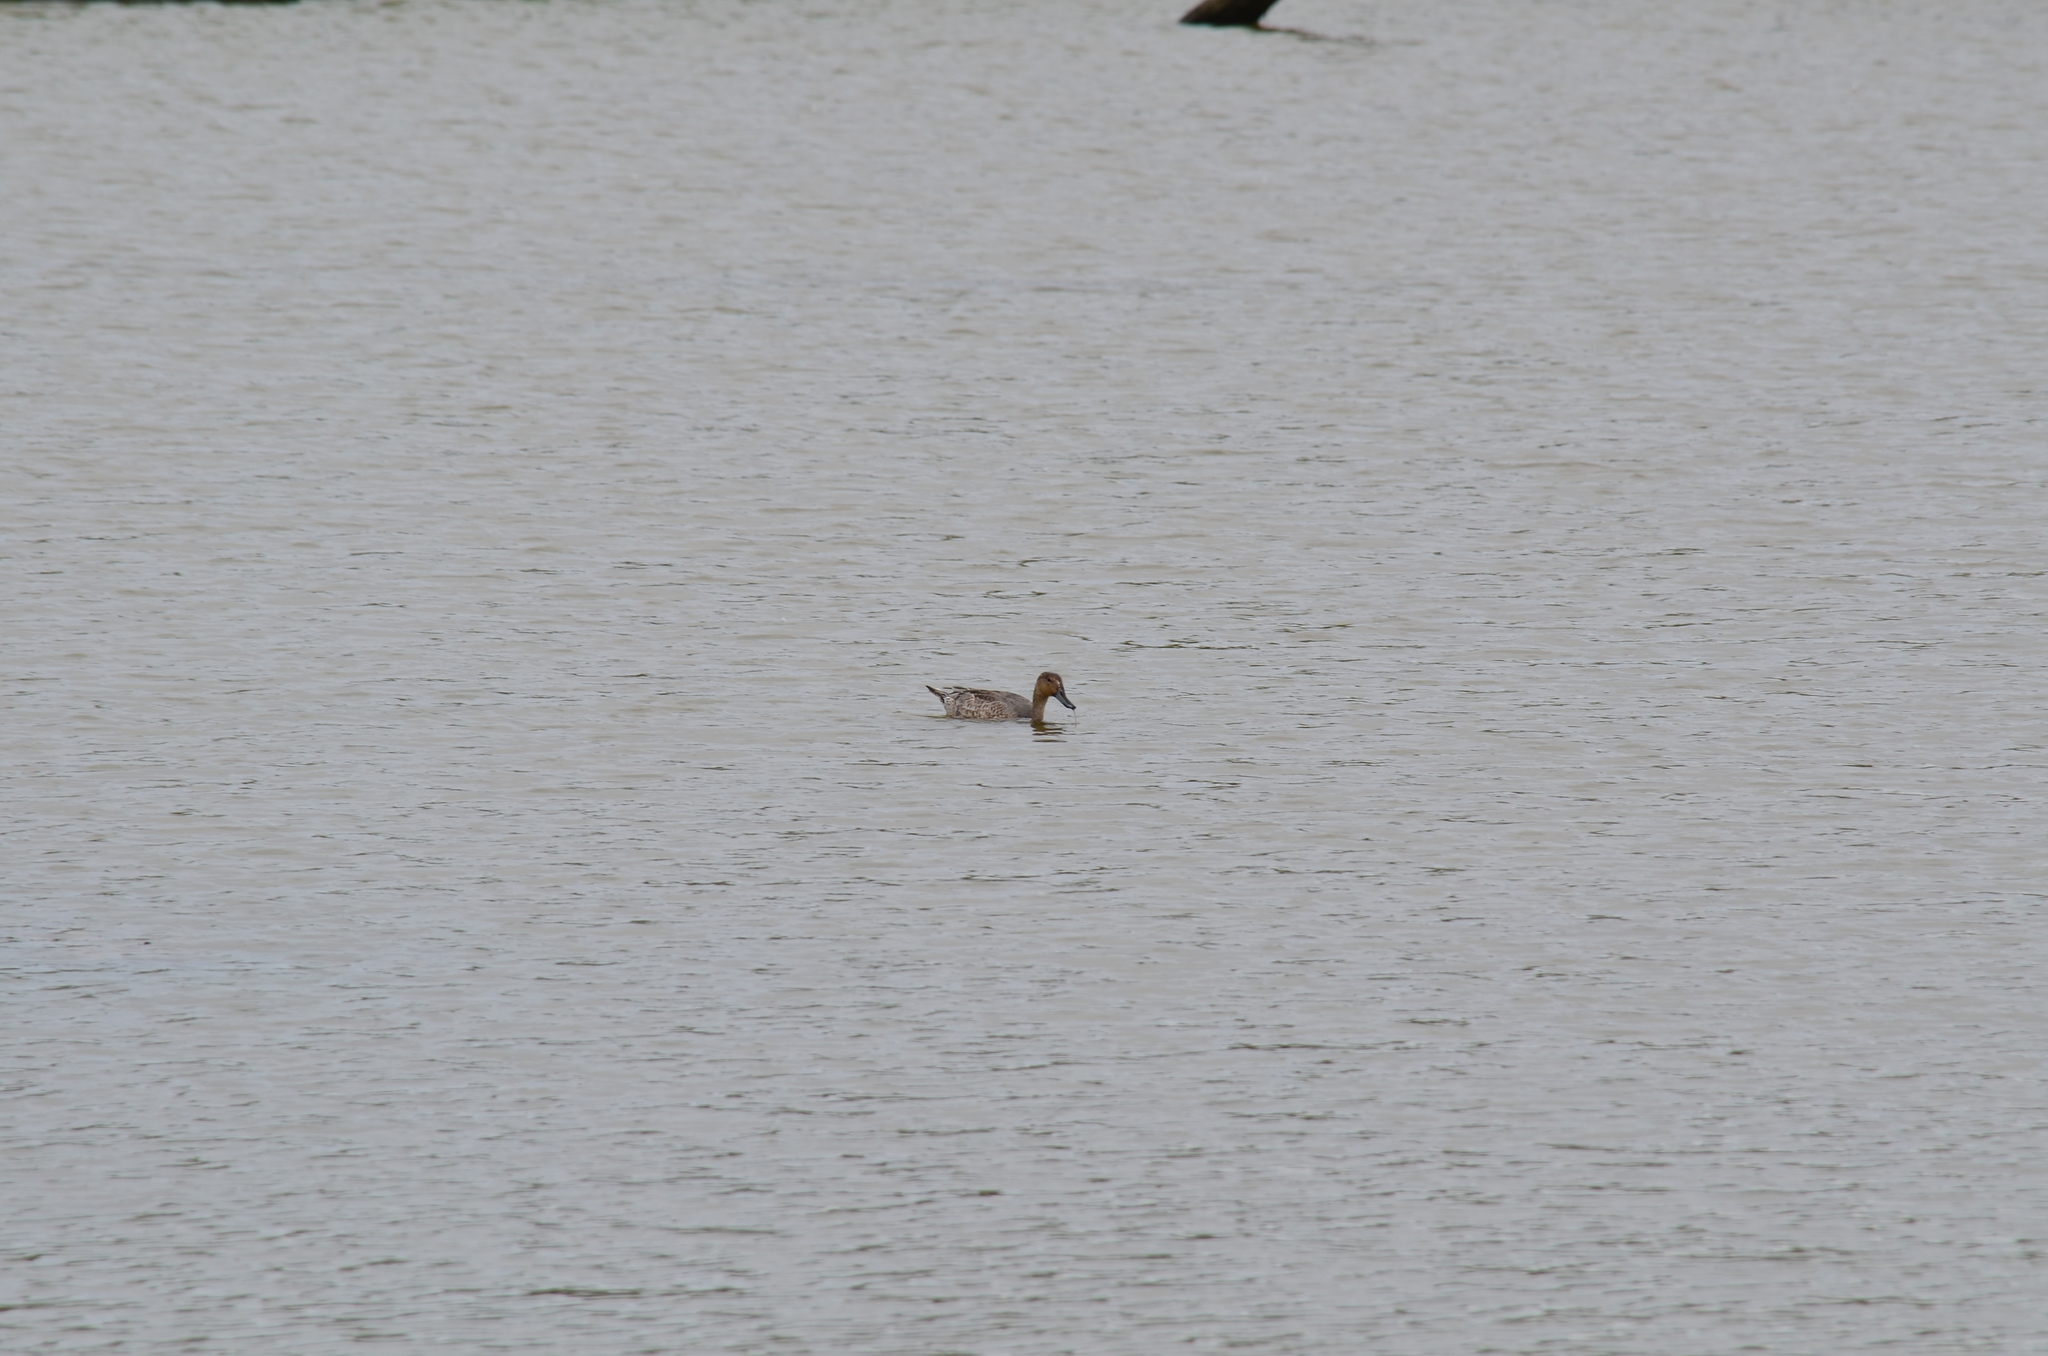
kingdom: Animalia
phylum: Chordata
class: Aves
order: Anseriformes
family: Anatidae
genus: Anas
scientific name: Anas acuta
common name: Northern pintail
